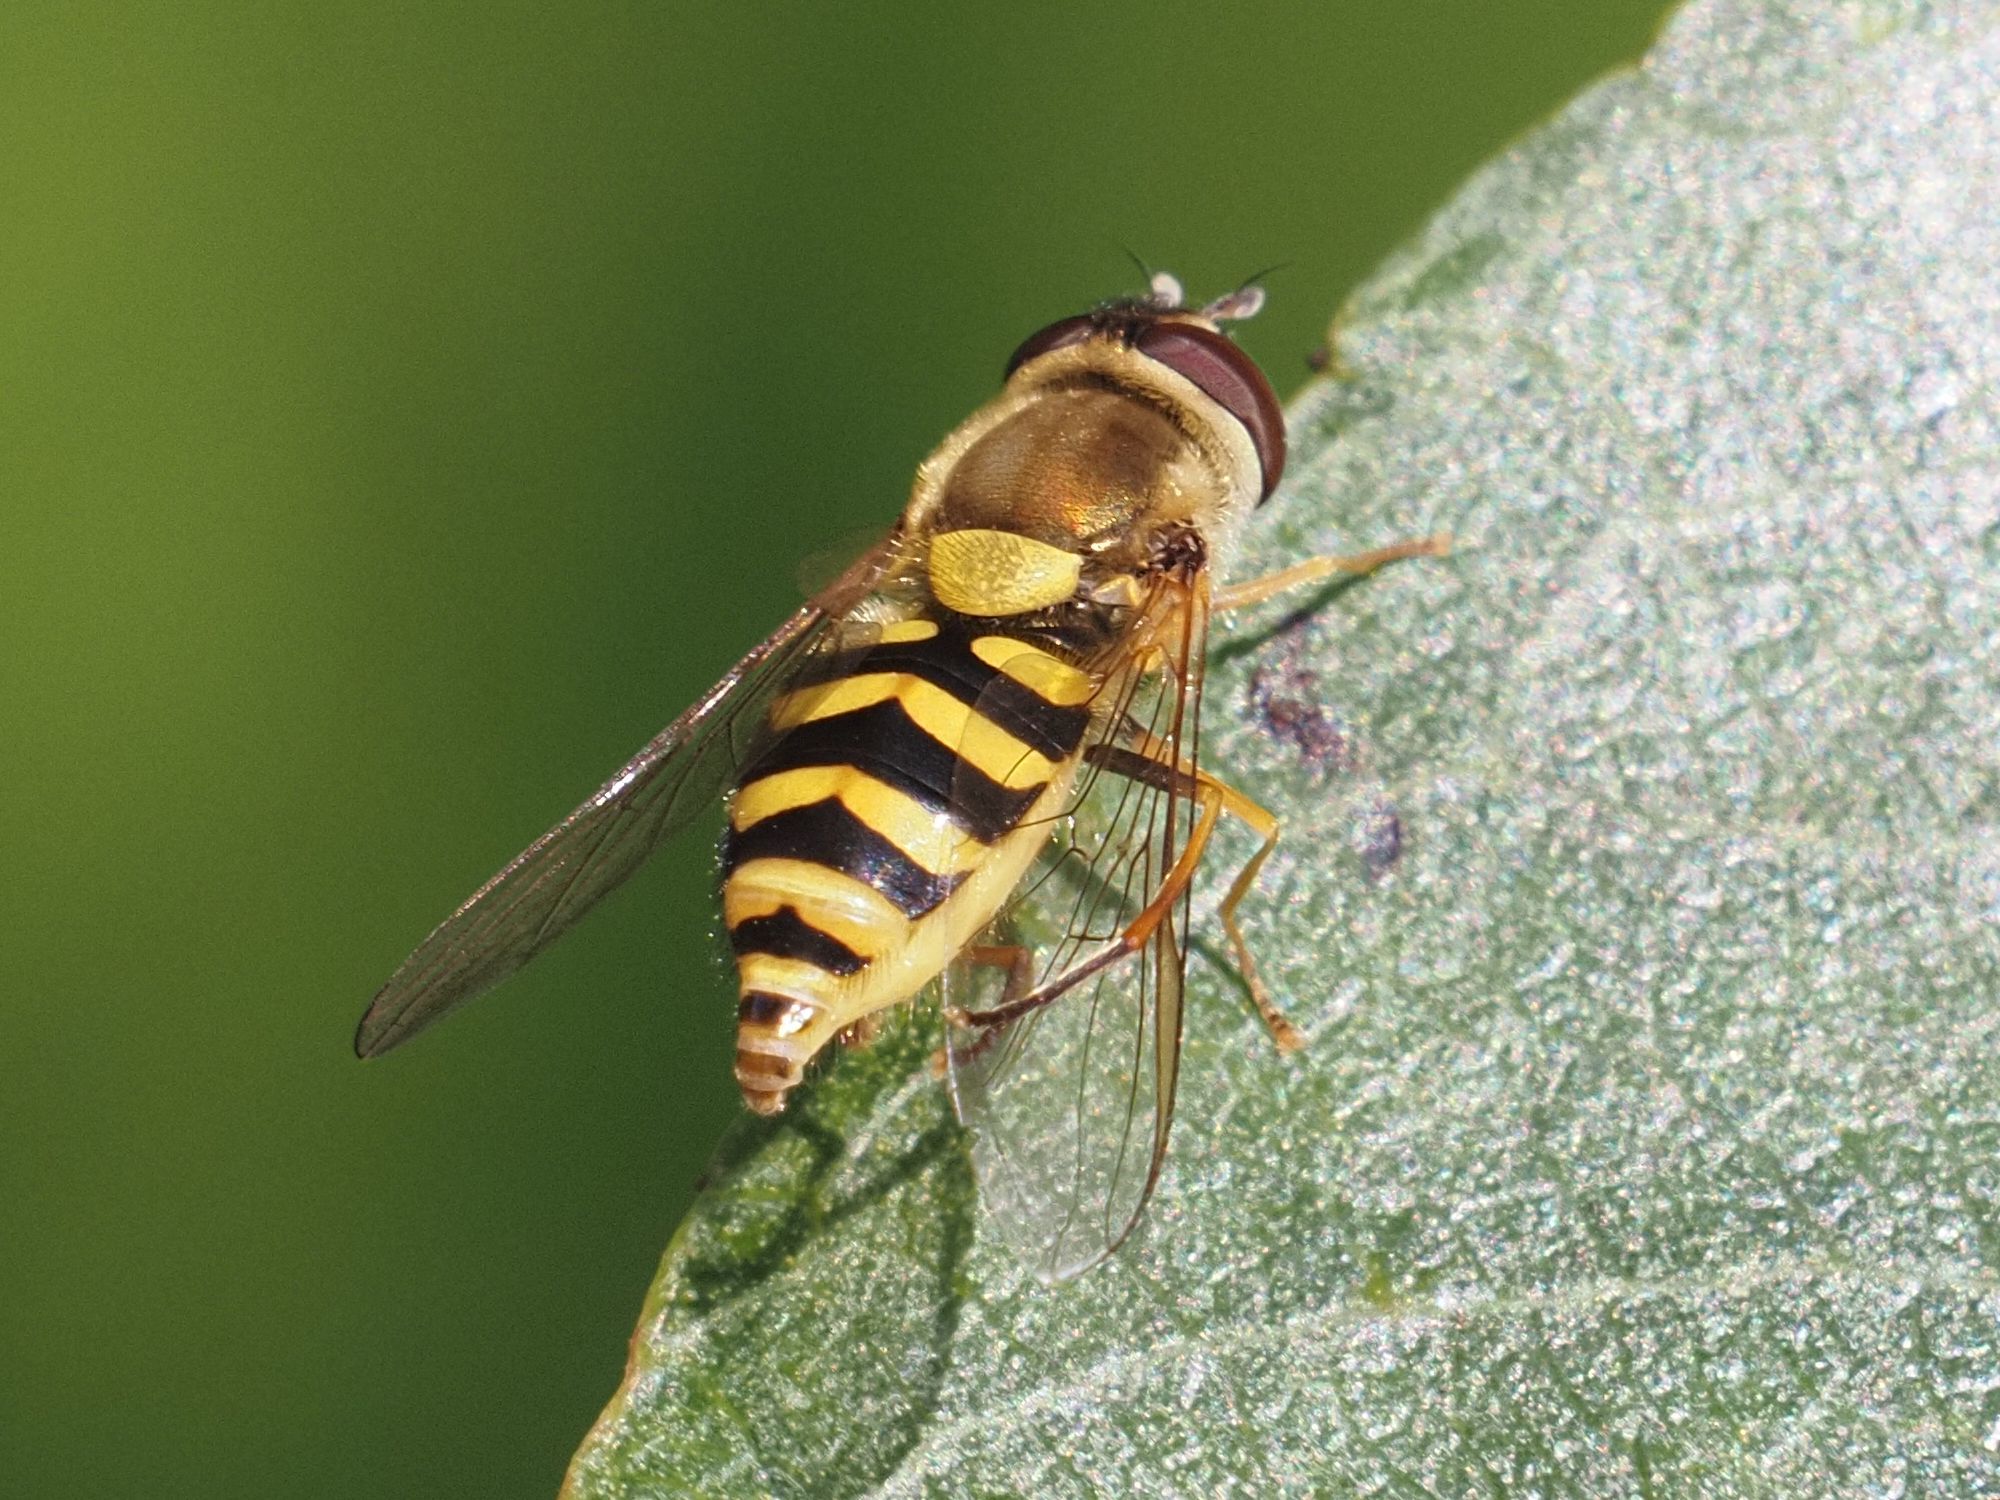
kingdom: Animalia
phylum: Arthropoda
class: Insecta
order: Diptera
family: Syrphidae
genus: Syrphus
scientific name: Syrphus vitripennis
